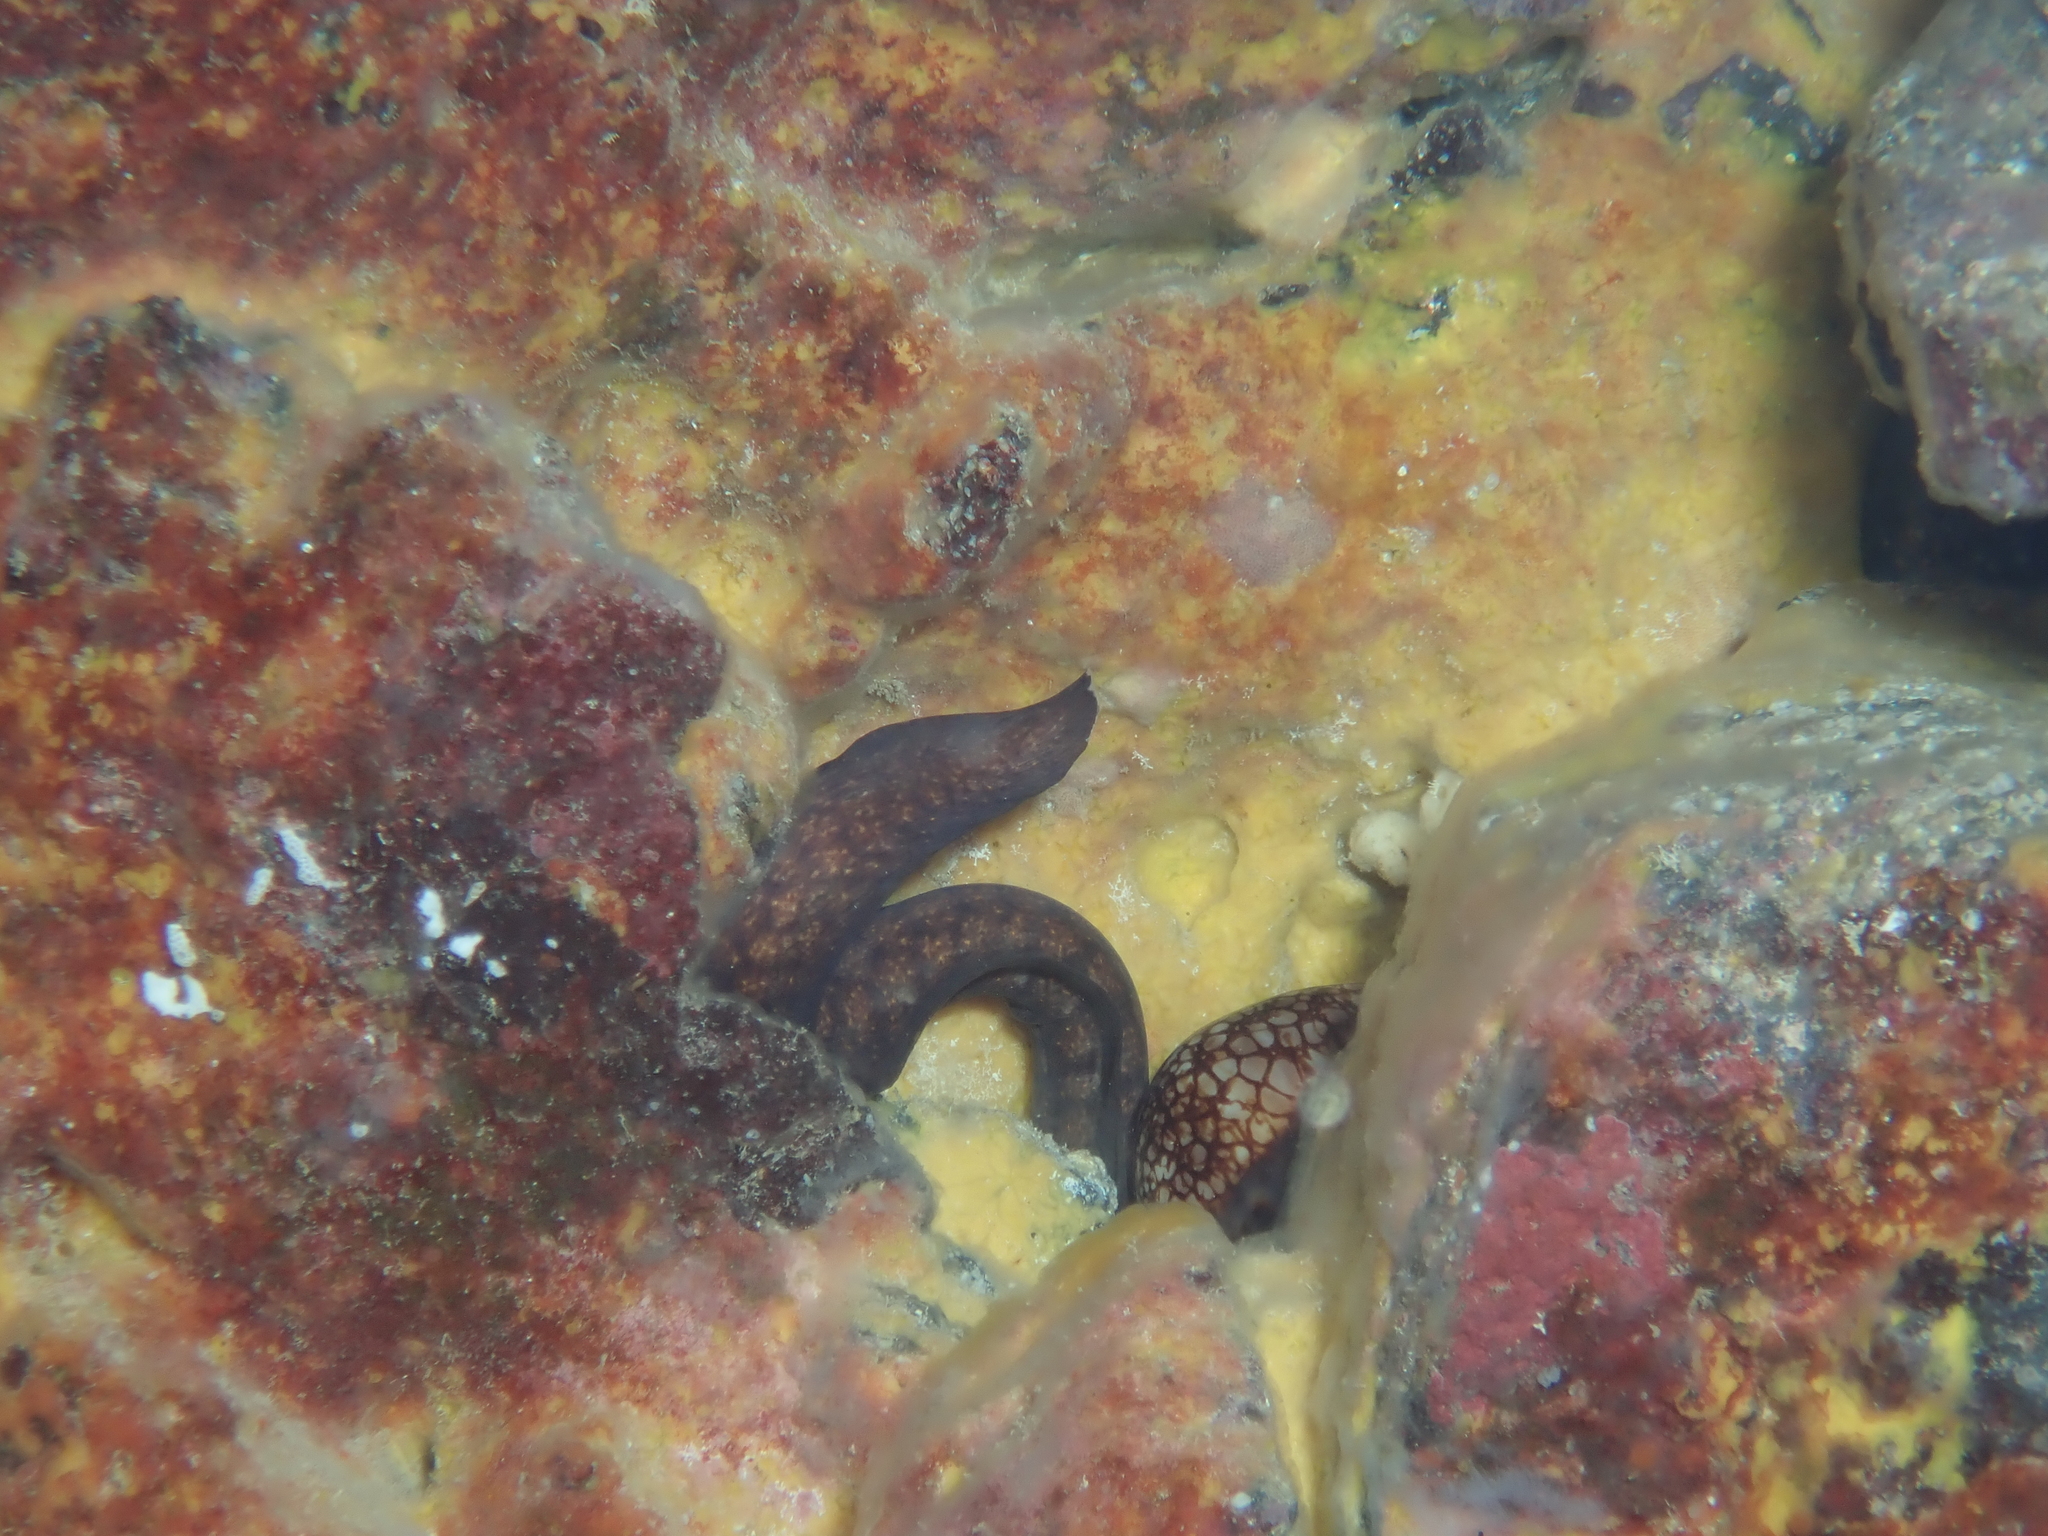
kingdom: Animalia
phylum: Chordata
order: Anguilliformes
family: Muraenidae
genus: Gymnothorax
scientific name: Gymnothorax eurostus
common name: Stout moray
